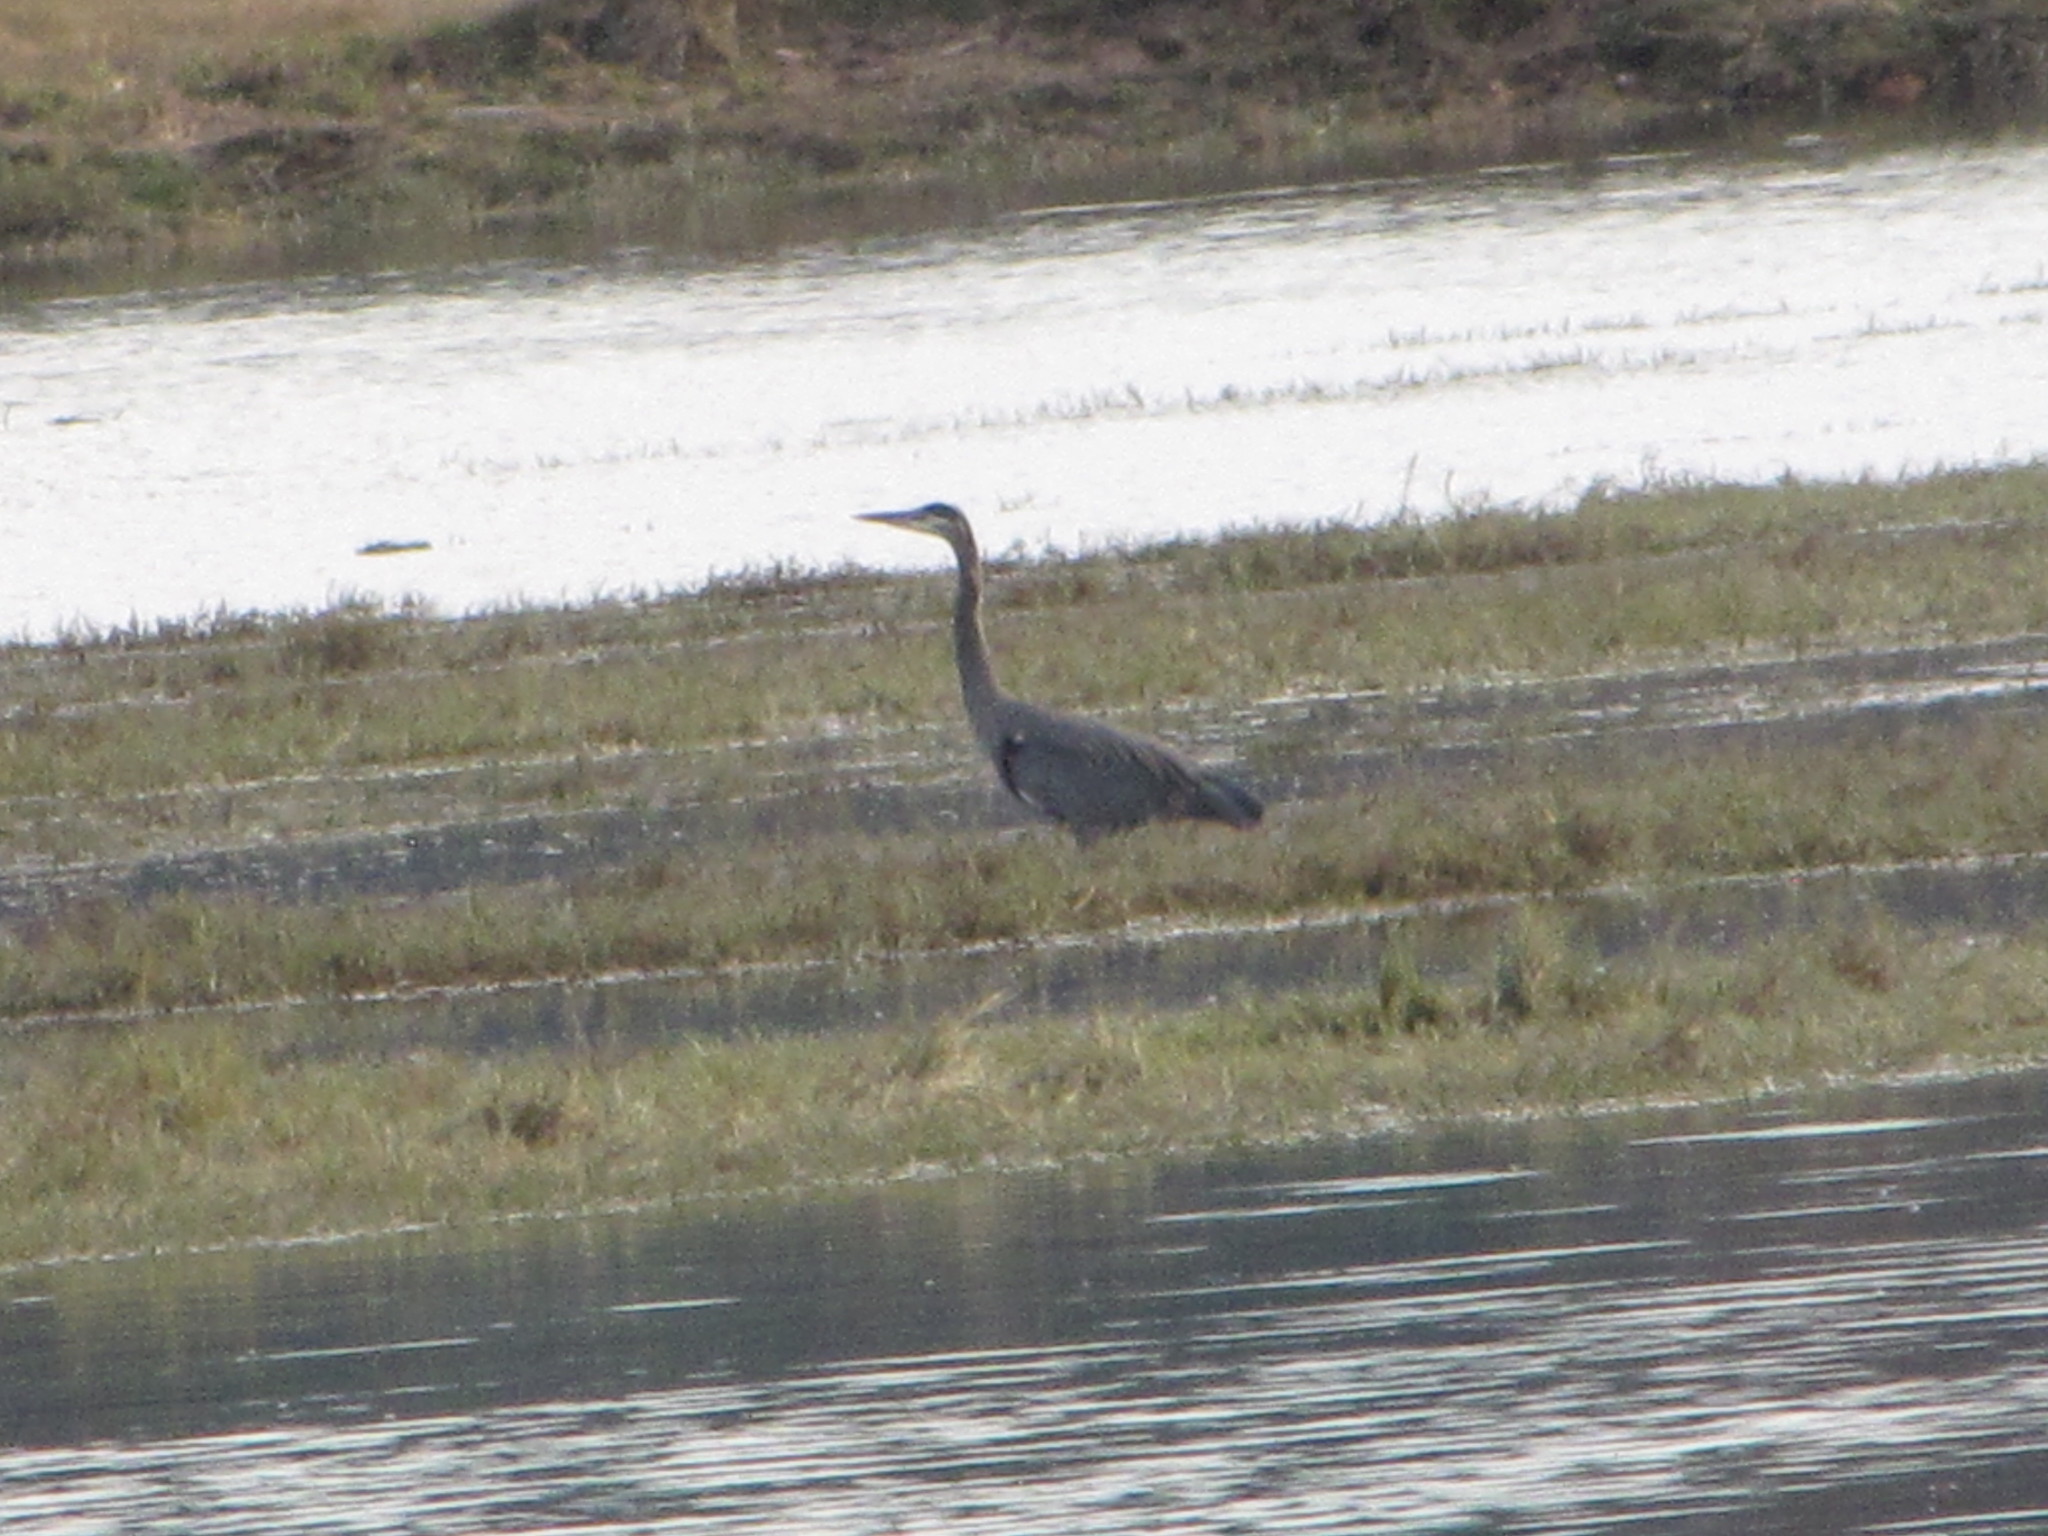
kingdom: Animalia
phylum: Chordata
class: Aves
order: Pelecaniformes
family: Ardeidae
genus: Ardea
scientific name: Ardea herodias
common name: Great blue heron
